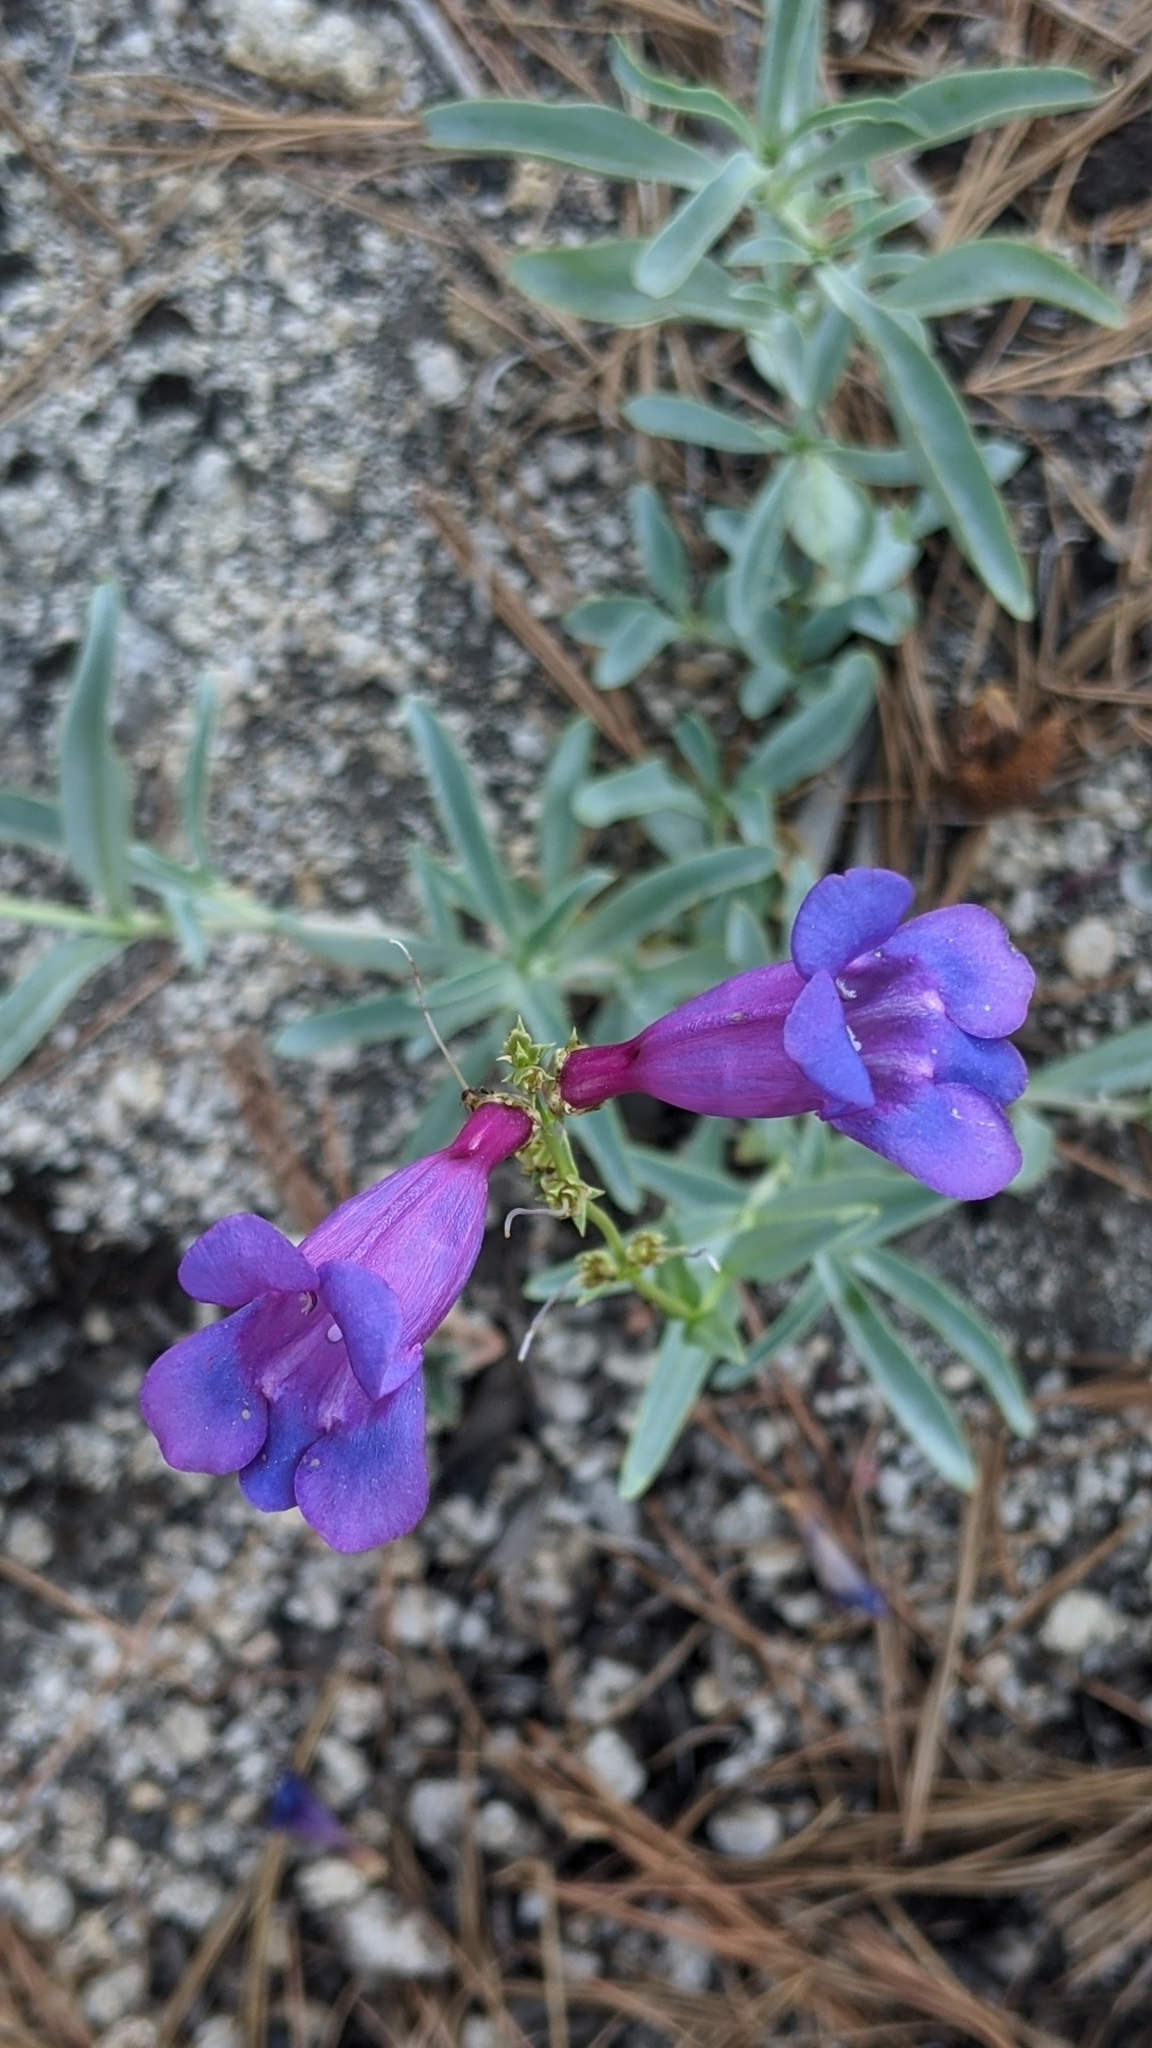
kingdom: Plantae
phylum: Tracheophyta
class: Magnoliopsida
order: Lamiales
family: Plantaginaceae
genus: Penstemon
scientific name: Penstemon azureus
